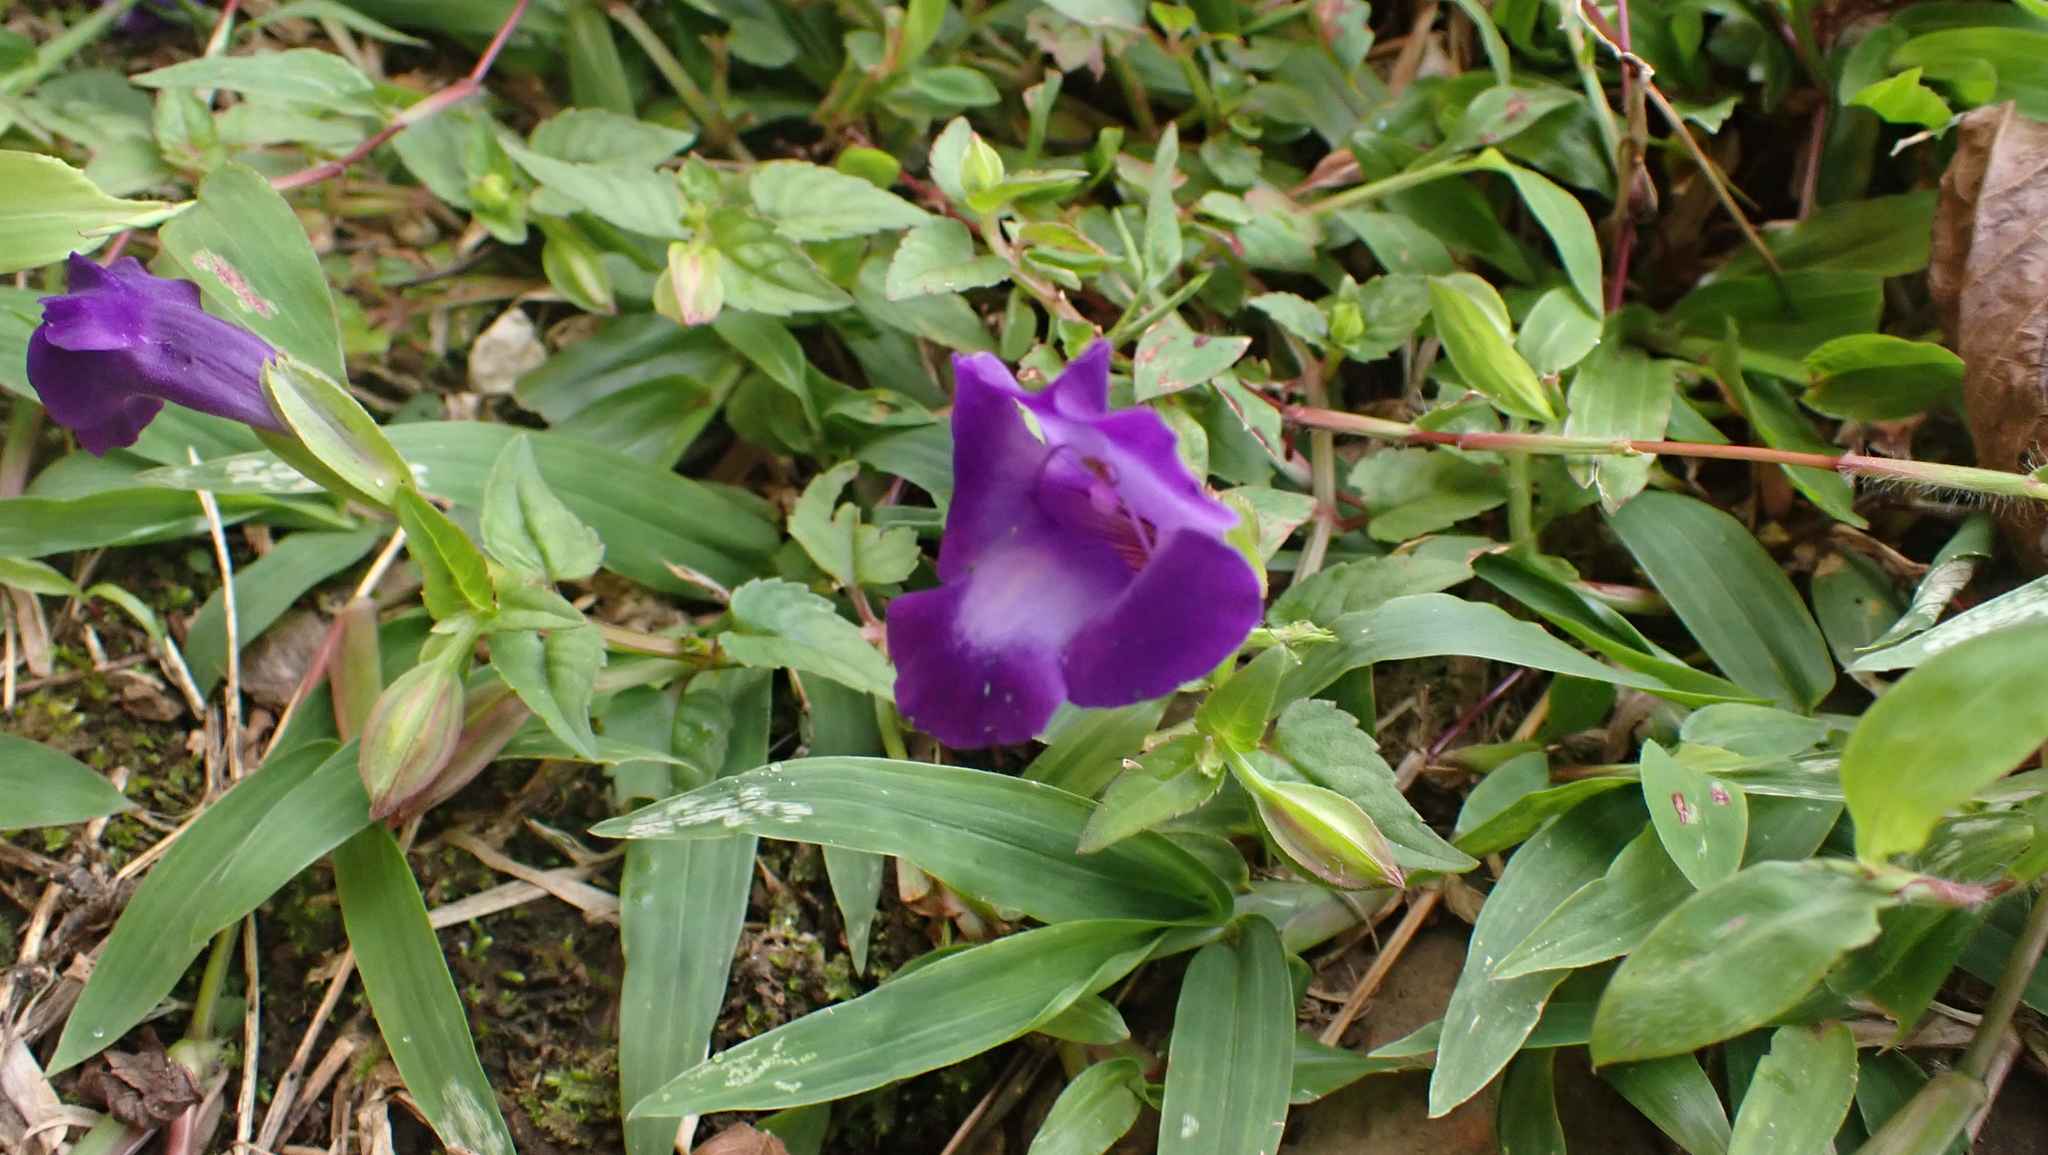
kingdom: Plantae
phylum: Tracheophyta
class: Magnoliopsida
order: Lamiales
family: Linderniaceae
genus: Torenia
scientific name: Torenia concolor
